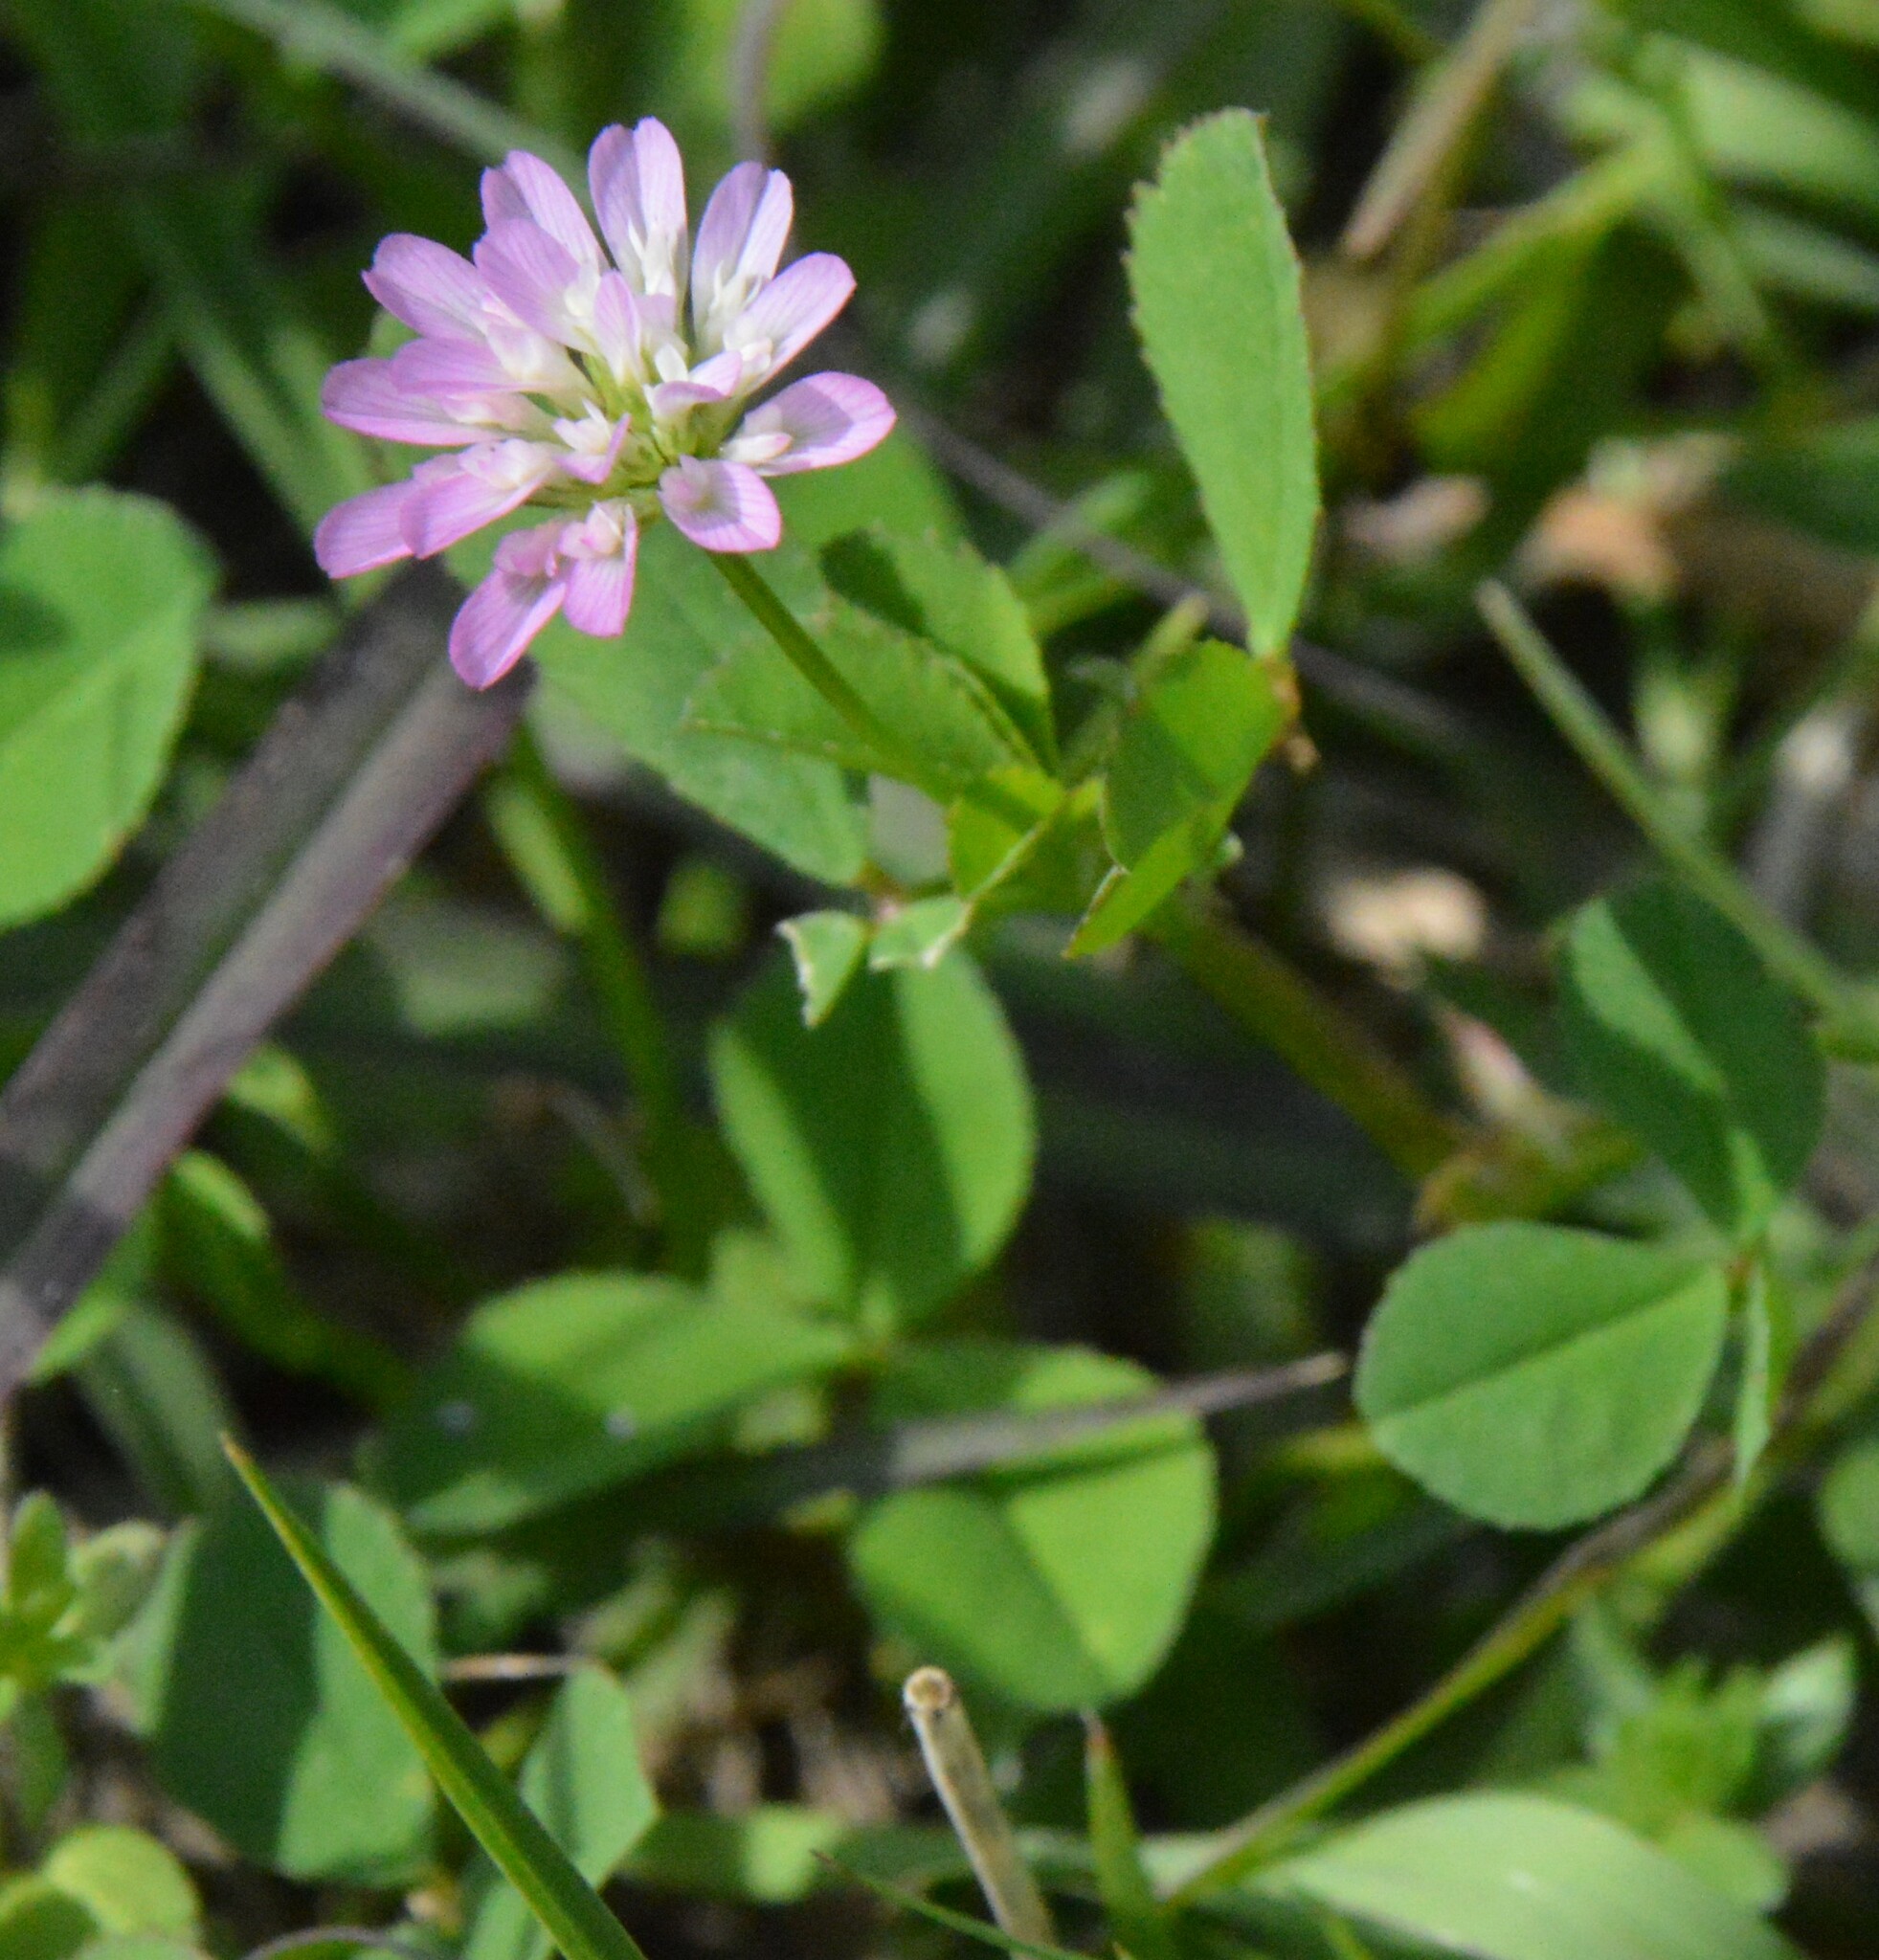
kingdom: Plantae
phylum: Tracheophyta
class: Magnoliopsida
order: Fabales
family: Fabaceae
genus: Trifolium
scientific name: Trifolium resupinatum
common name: Reversed clover
